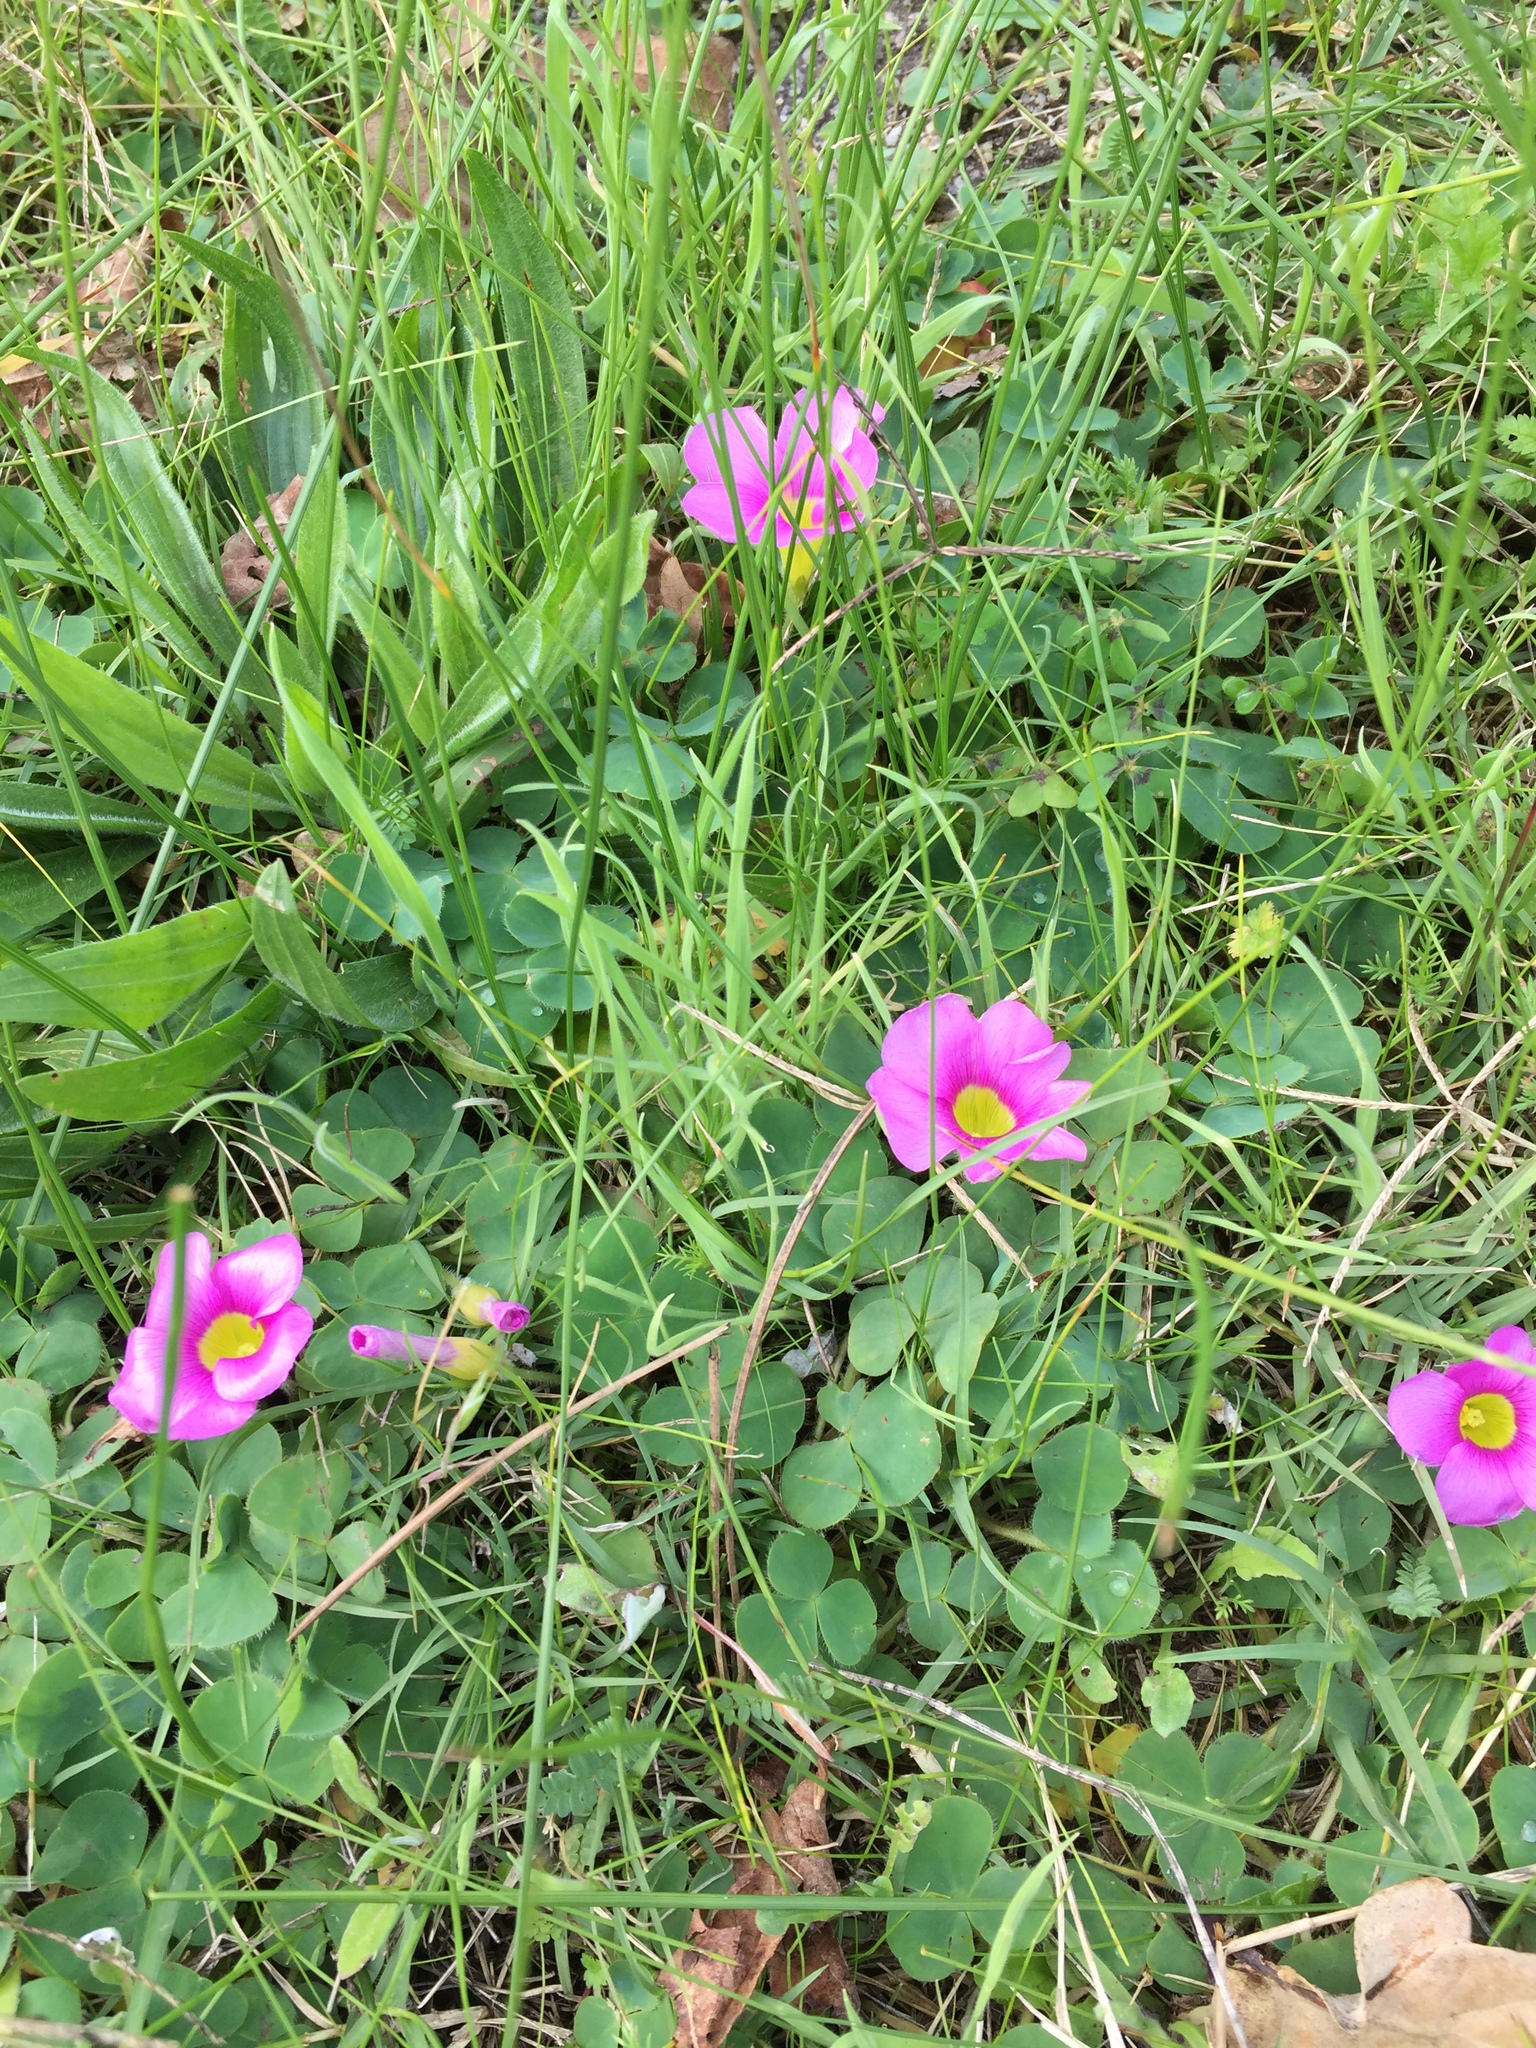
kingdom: Plantae
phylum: Tracheophyta
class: Magnoliopsida
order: Oxalidales
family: Oxalidaceae
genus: Oxalis
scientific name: Oxalis purpurea
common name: Purple woodsorrel
